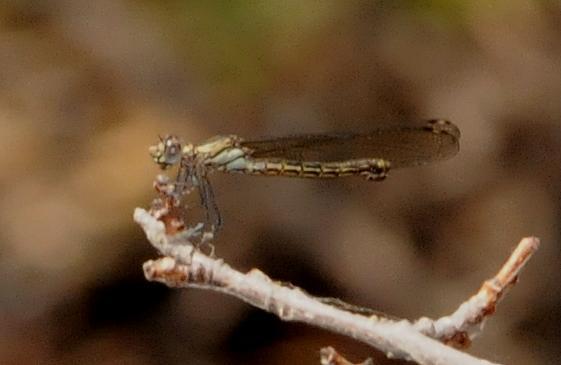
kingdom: Animalia
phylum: Arthropoda
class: Insecta
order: Odonata
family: Chlorocyphidae
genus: Platycypha
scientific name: Platycypha caligata
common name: Dancing jewel
